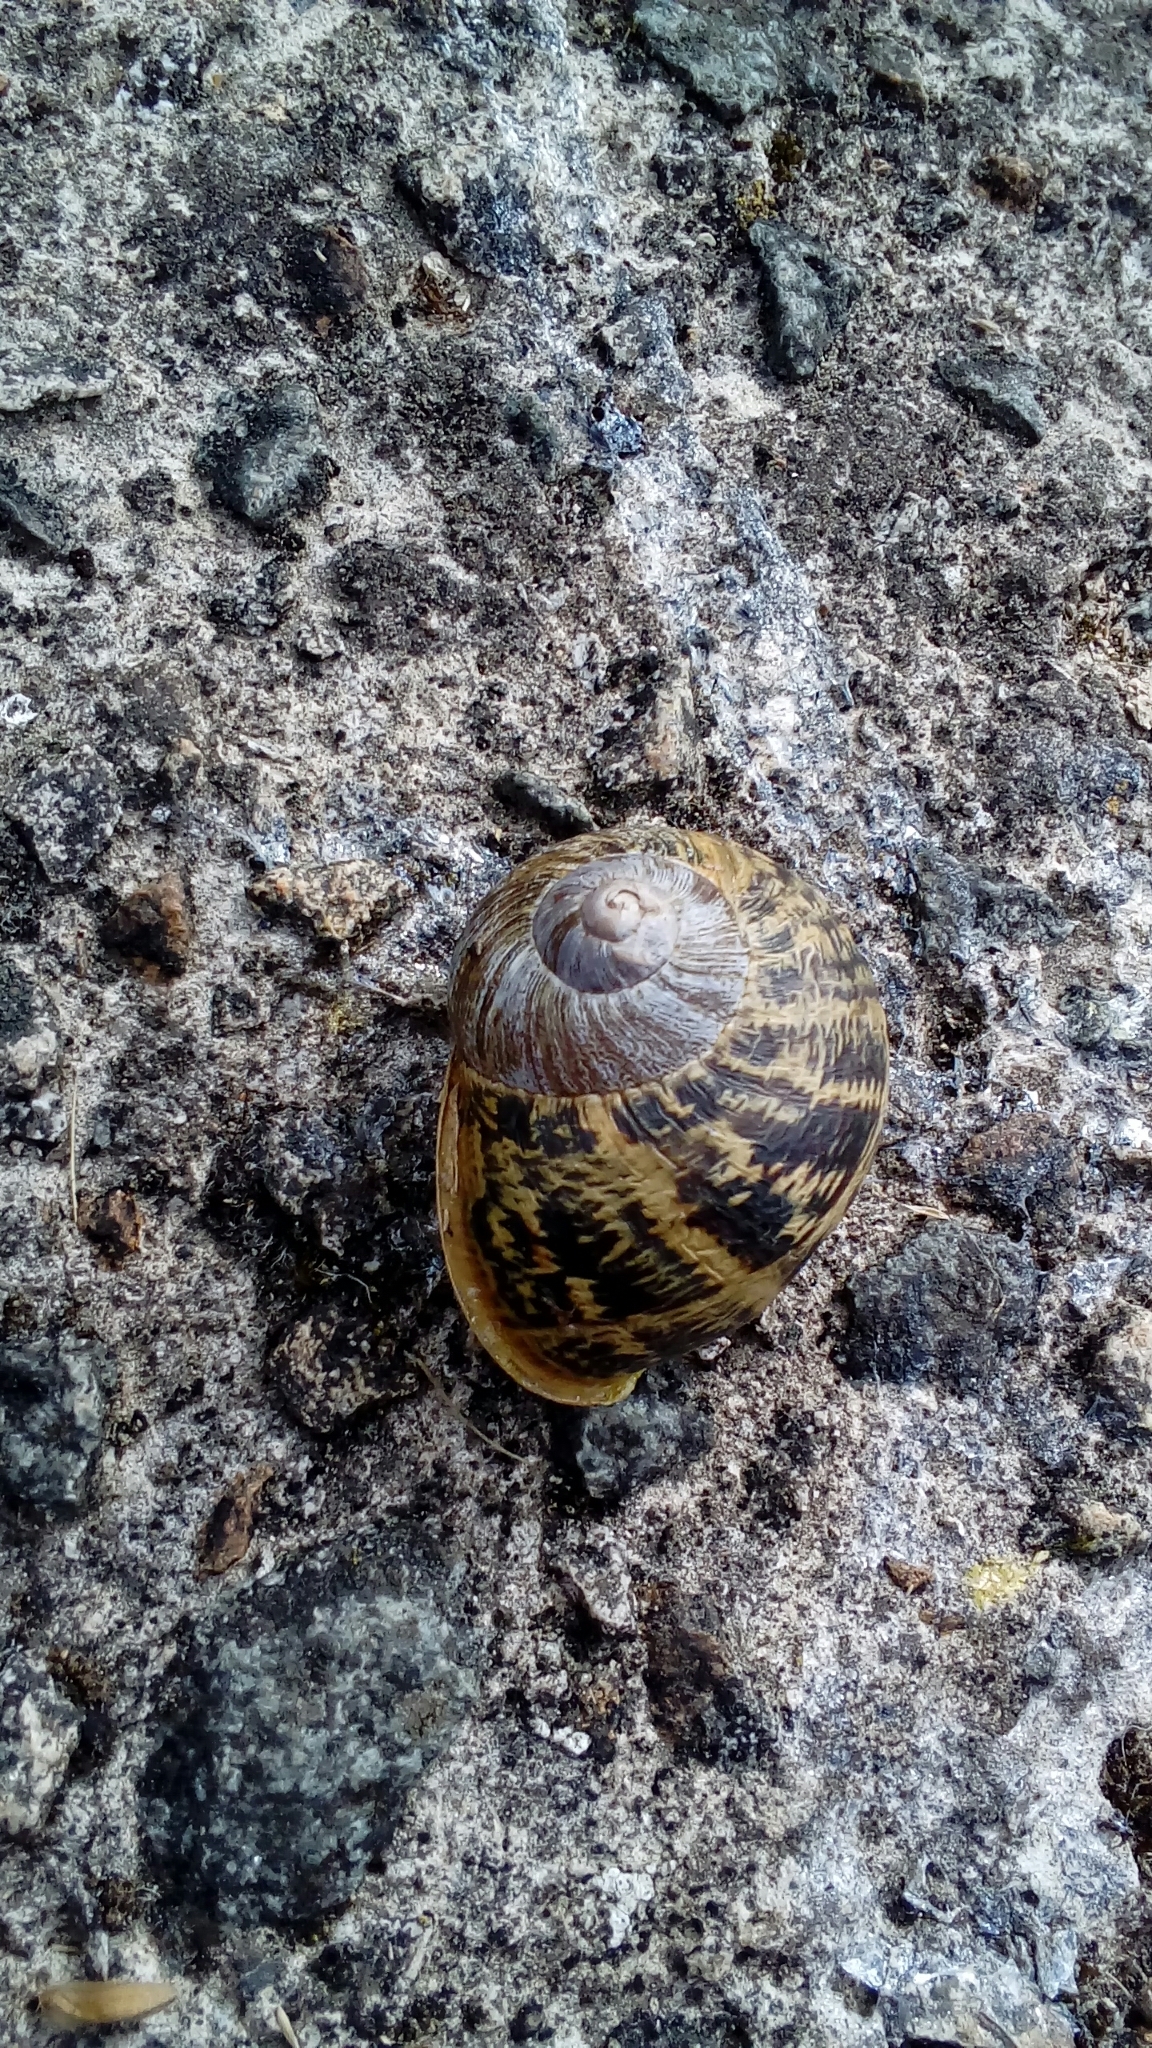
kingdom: Animalia
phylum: Mollusca
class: Gastropoda
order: Stylommatophora
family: Helicidae
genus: Cornu
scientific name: Cornu aspersum
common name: Brown garden snail
